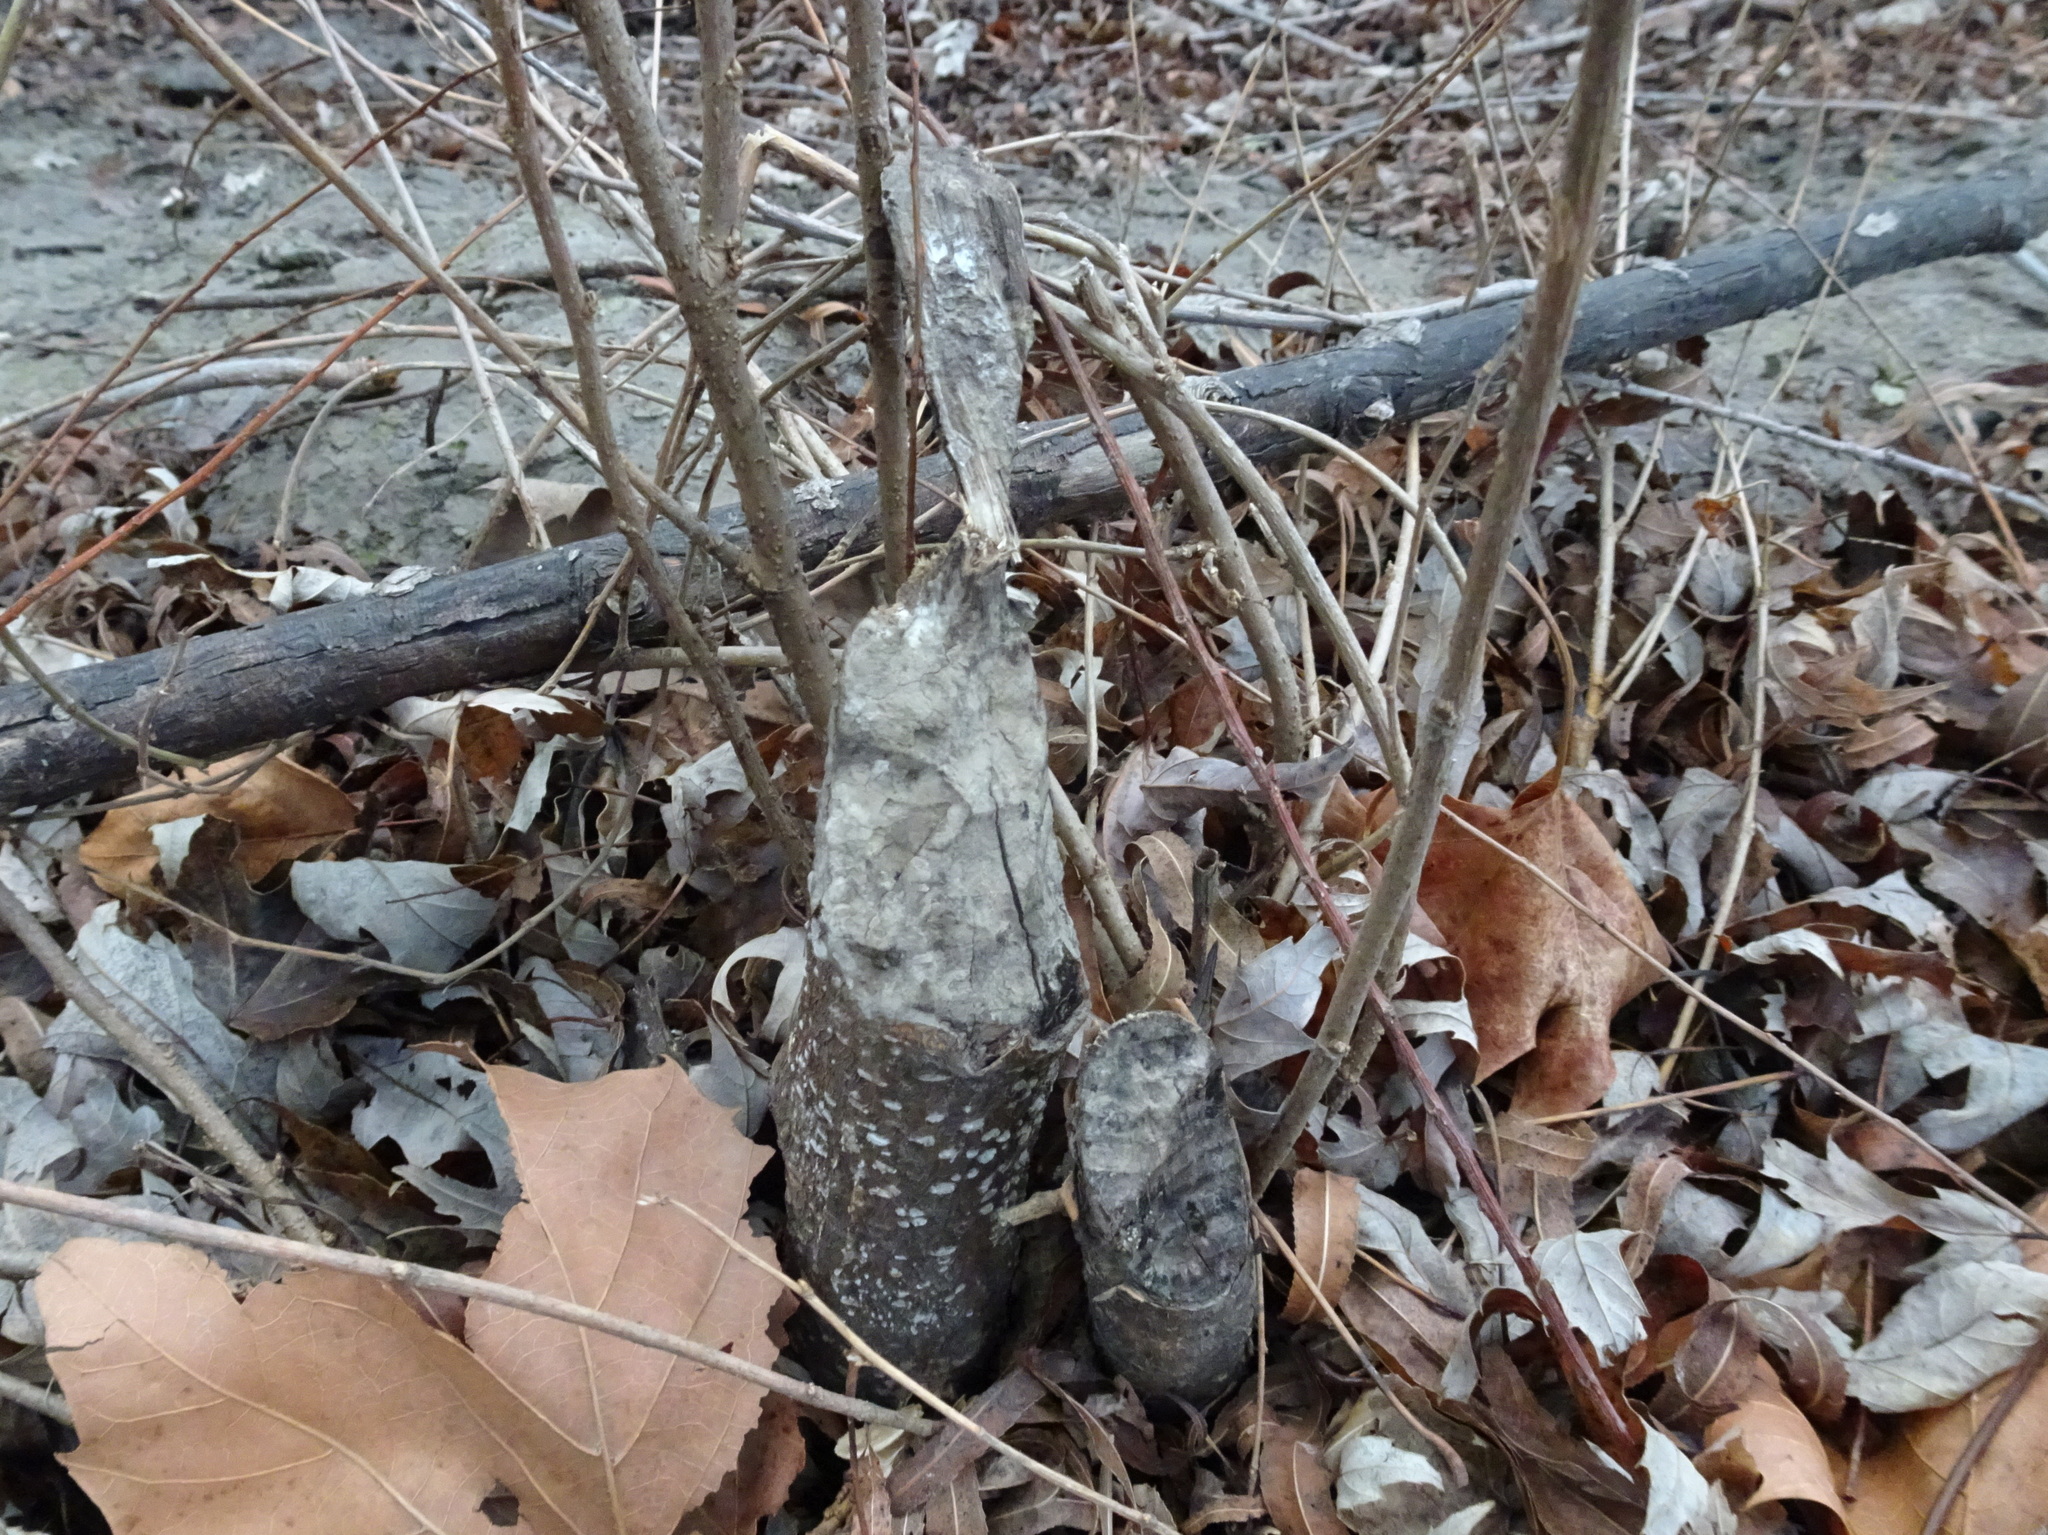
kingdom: Animalia
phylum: Chordata
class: Mammalia
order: Rodentia
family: Castoridae
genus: Castor
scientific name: Castor canadensis
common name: American beaver
